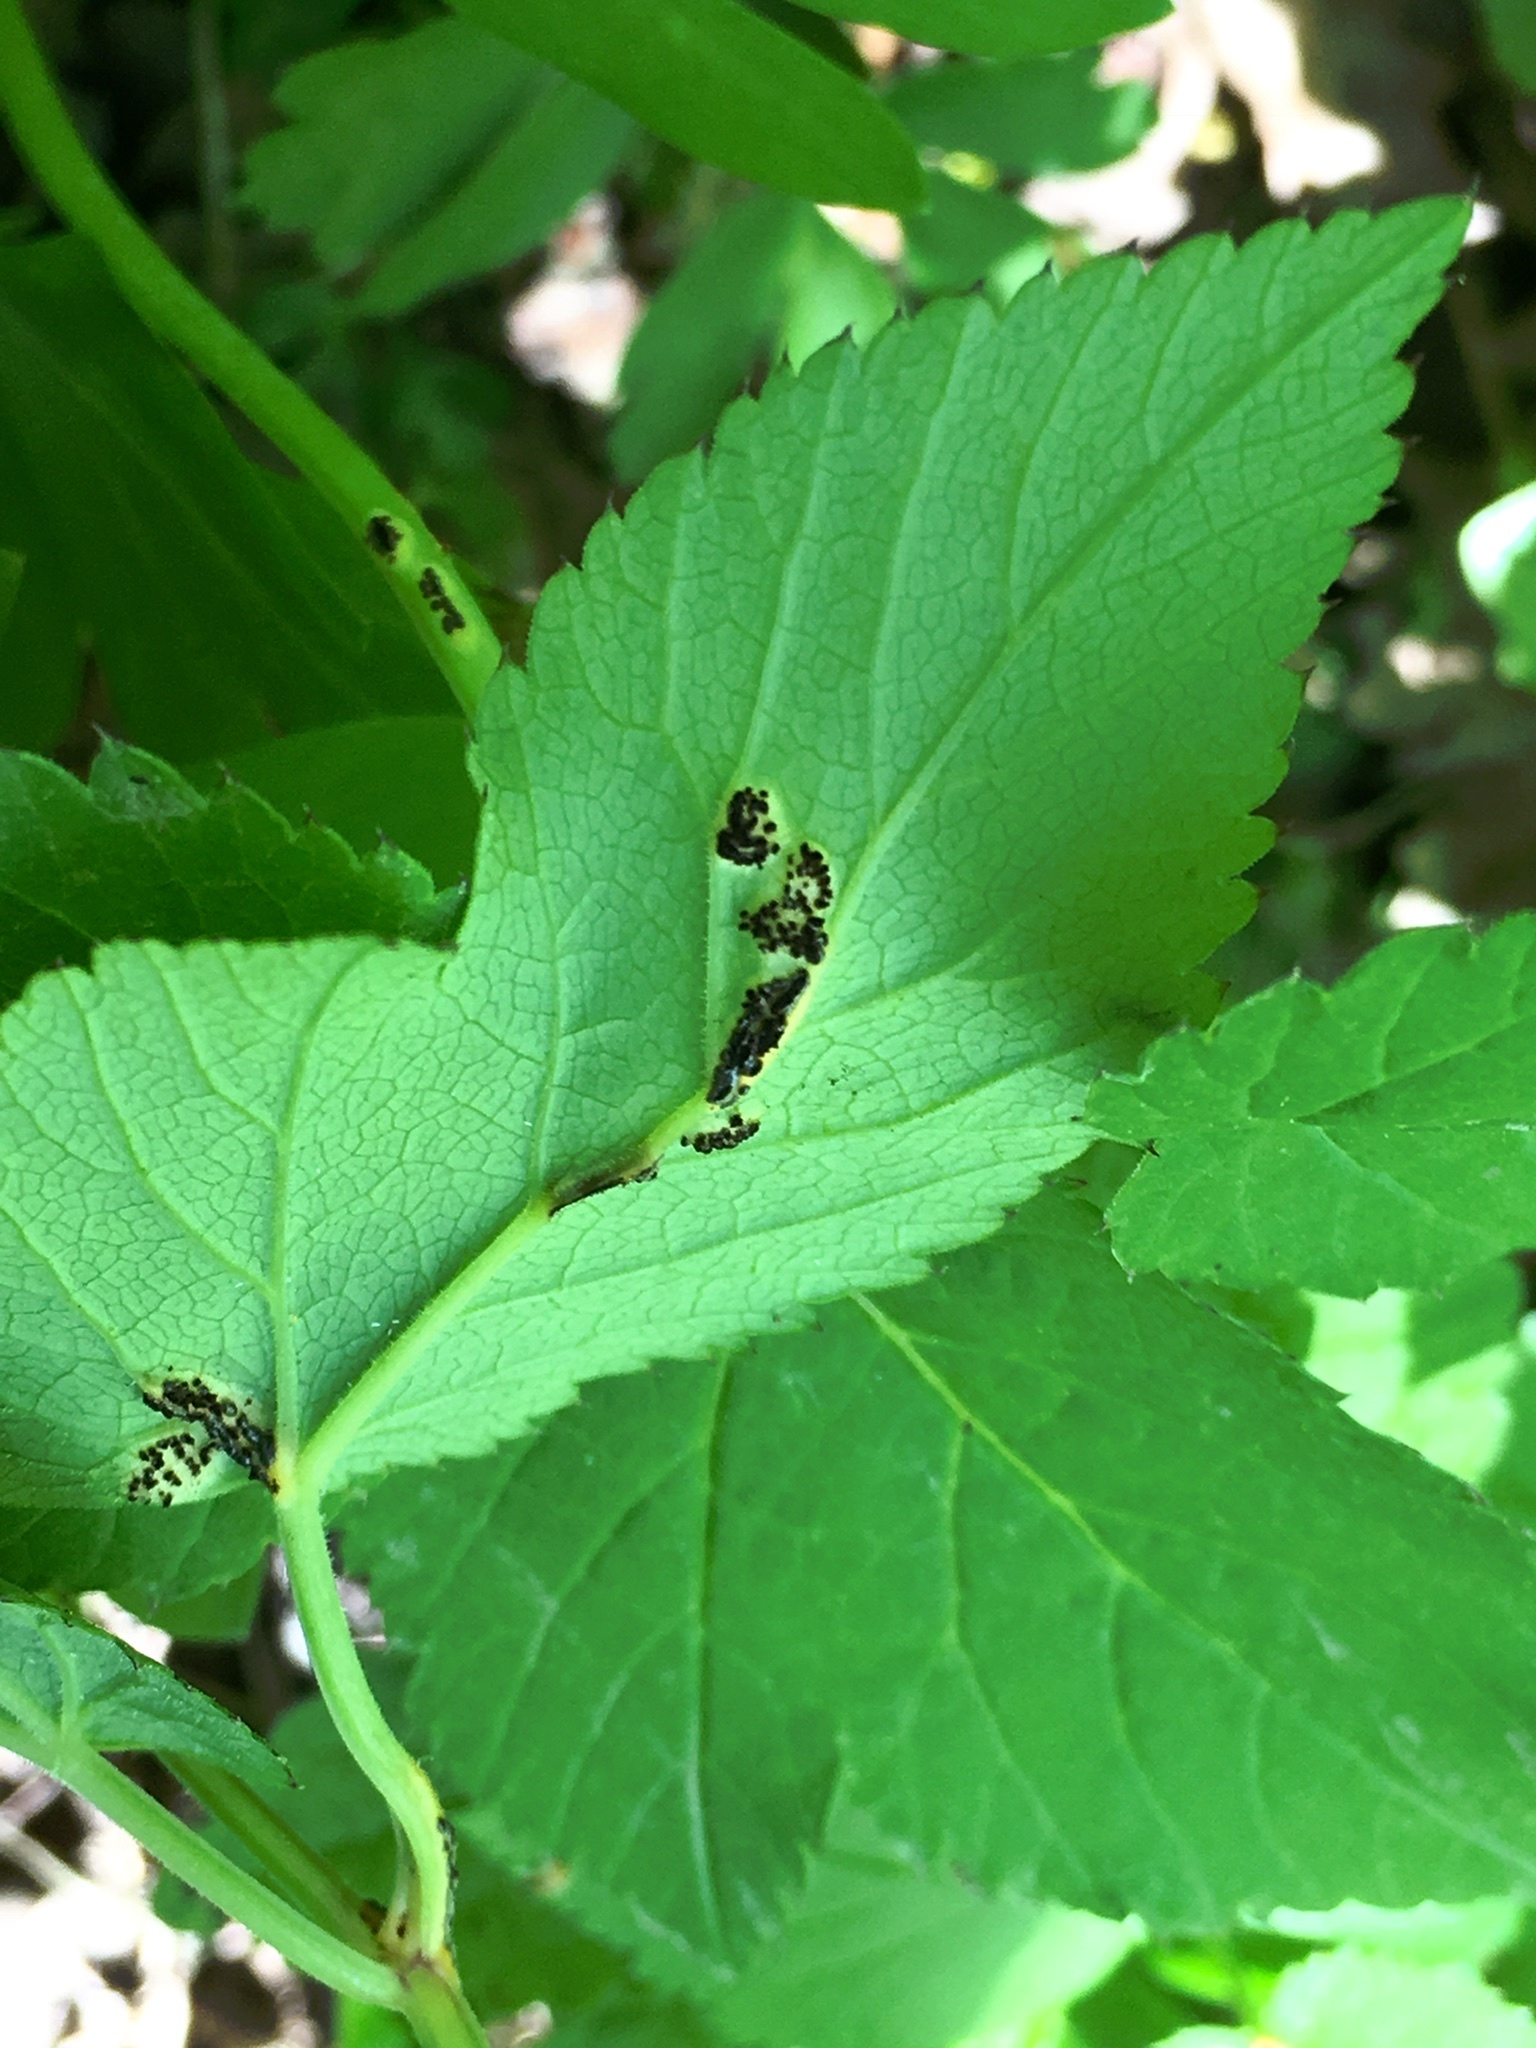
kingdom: Fungi
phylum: Basidiomycota
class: Pucciniomycetes
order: Pucciniales
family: Pucciniaceae
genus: Puccinia
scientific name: Puccinia aegopodii
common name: Ground elder rust
